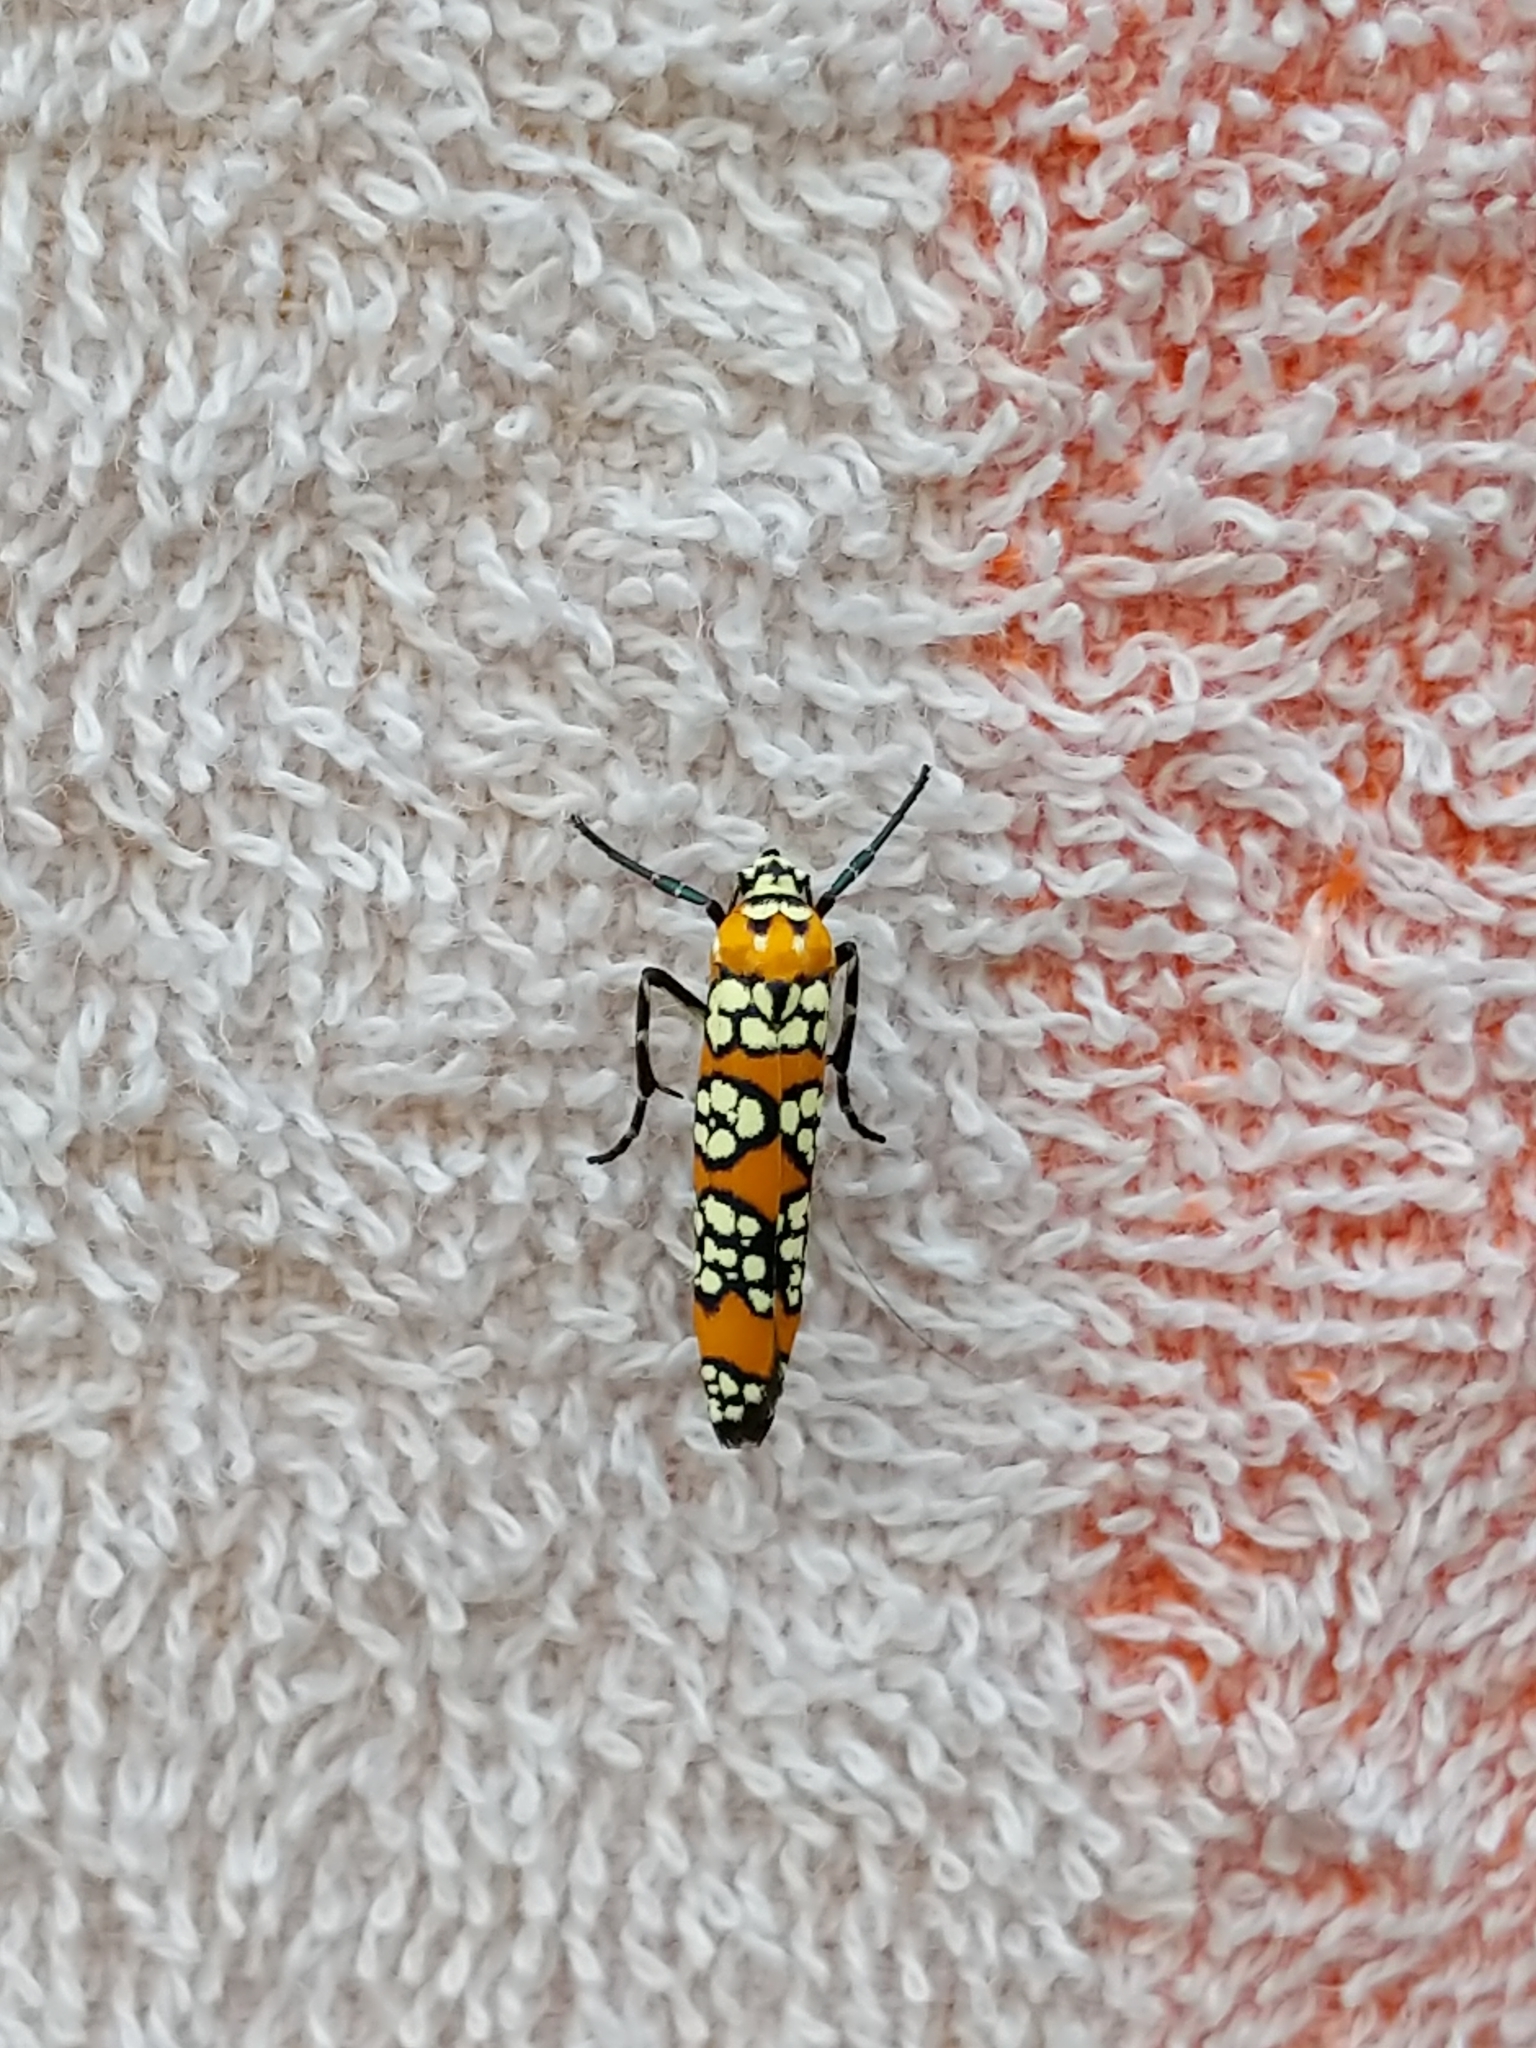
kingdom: Animalia
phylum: Arthropoda
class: Insecta
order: Lepidoptera
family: Attevidae
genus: Atteva
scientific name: Atteva punctella
